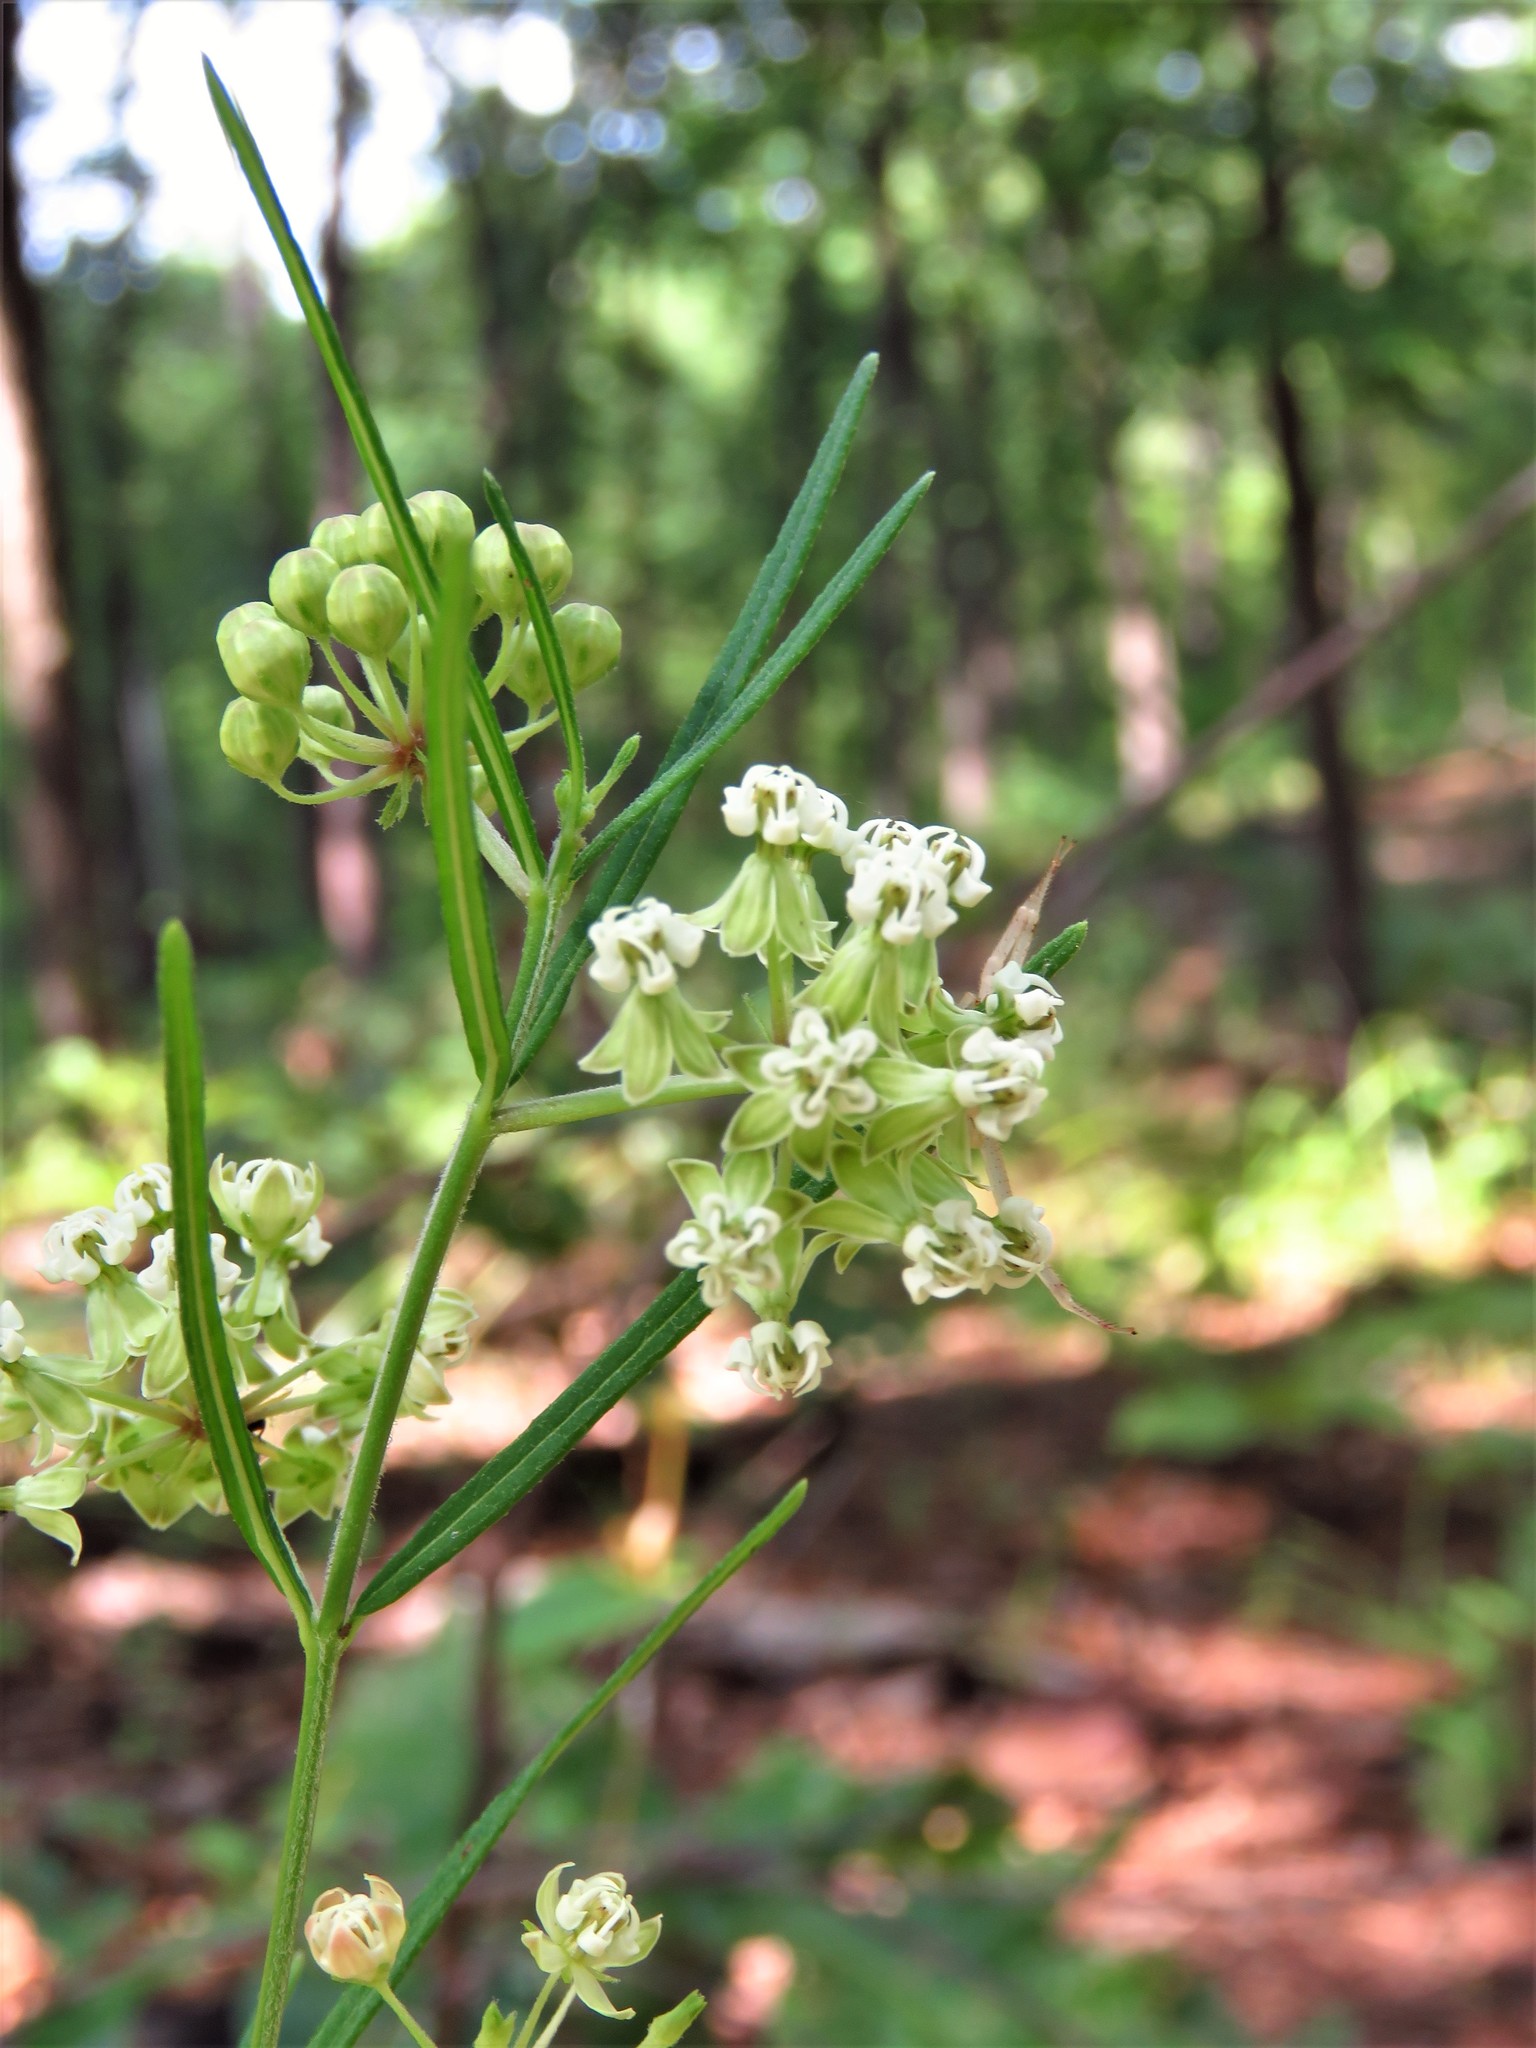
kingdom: Plantae
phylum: Tracheophyta
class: Magnoliopsida
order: Gentianales
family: Apocynaceae
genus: Asclepias
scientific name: Asclepias verticillata
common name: Eastern whorled milkweed
